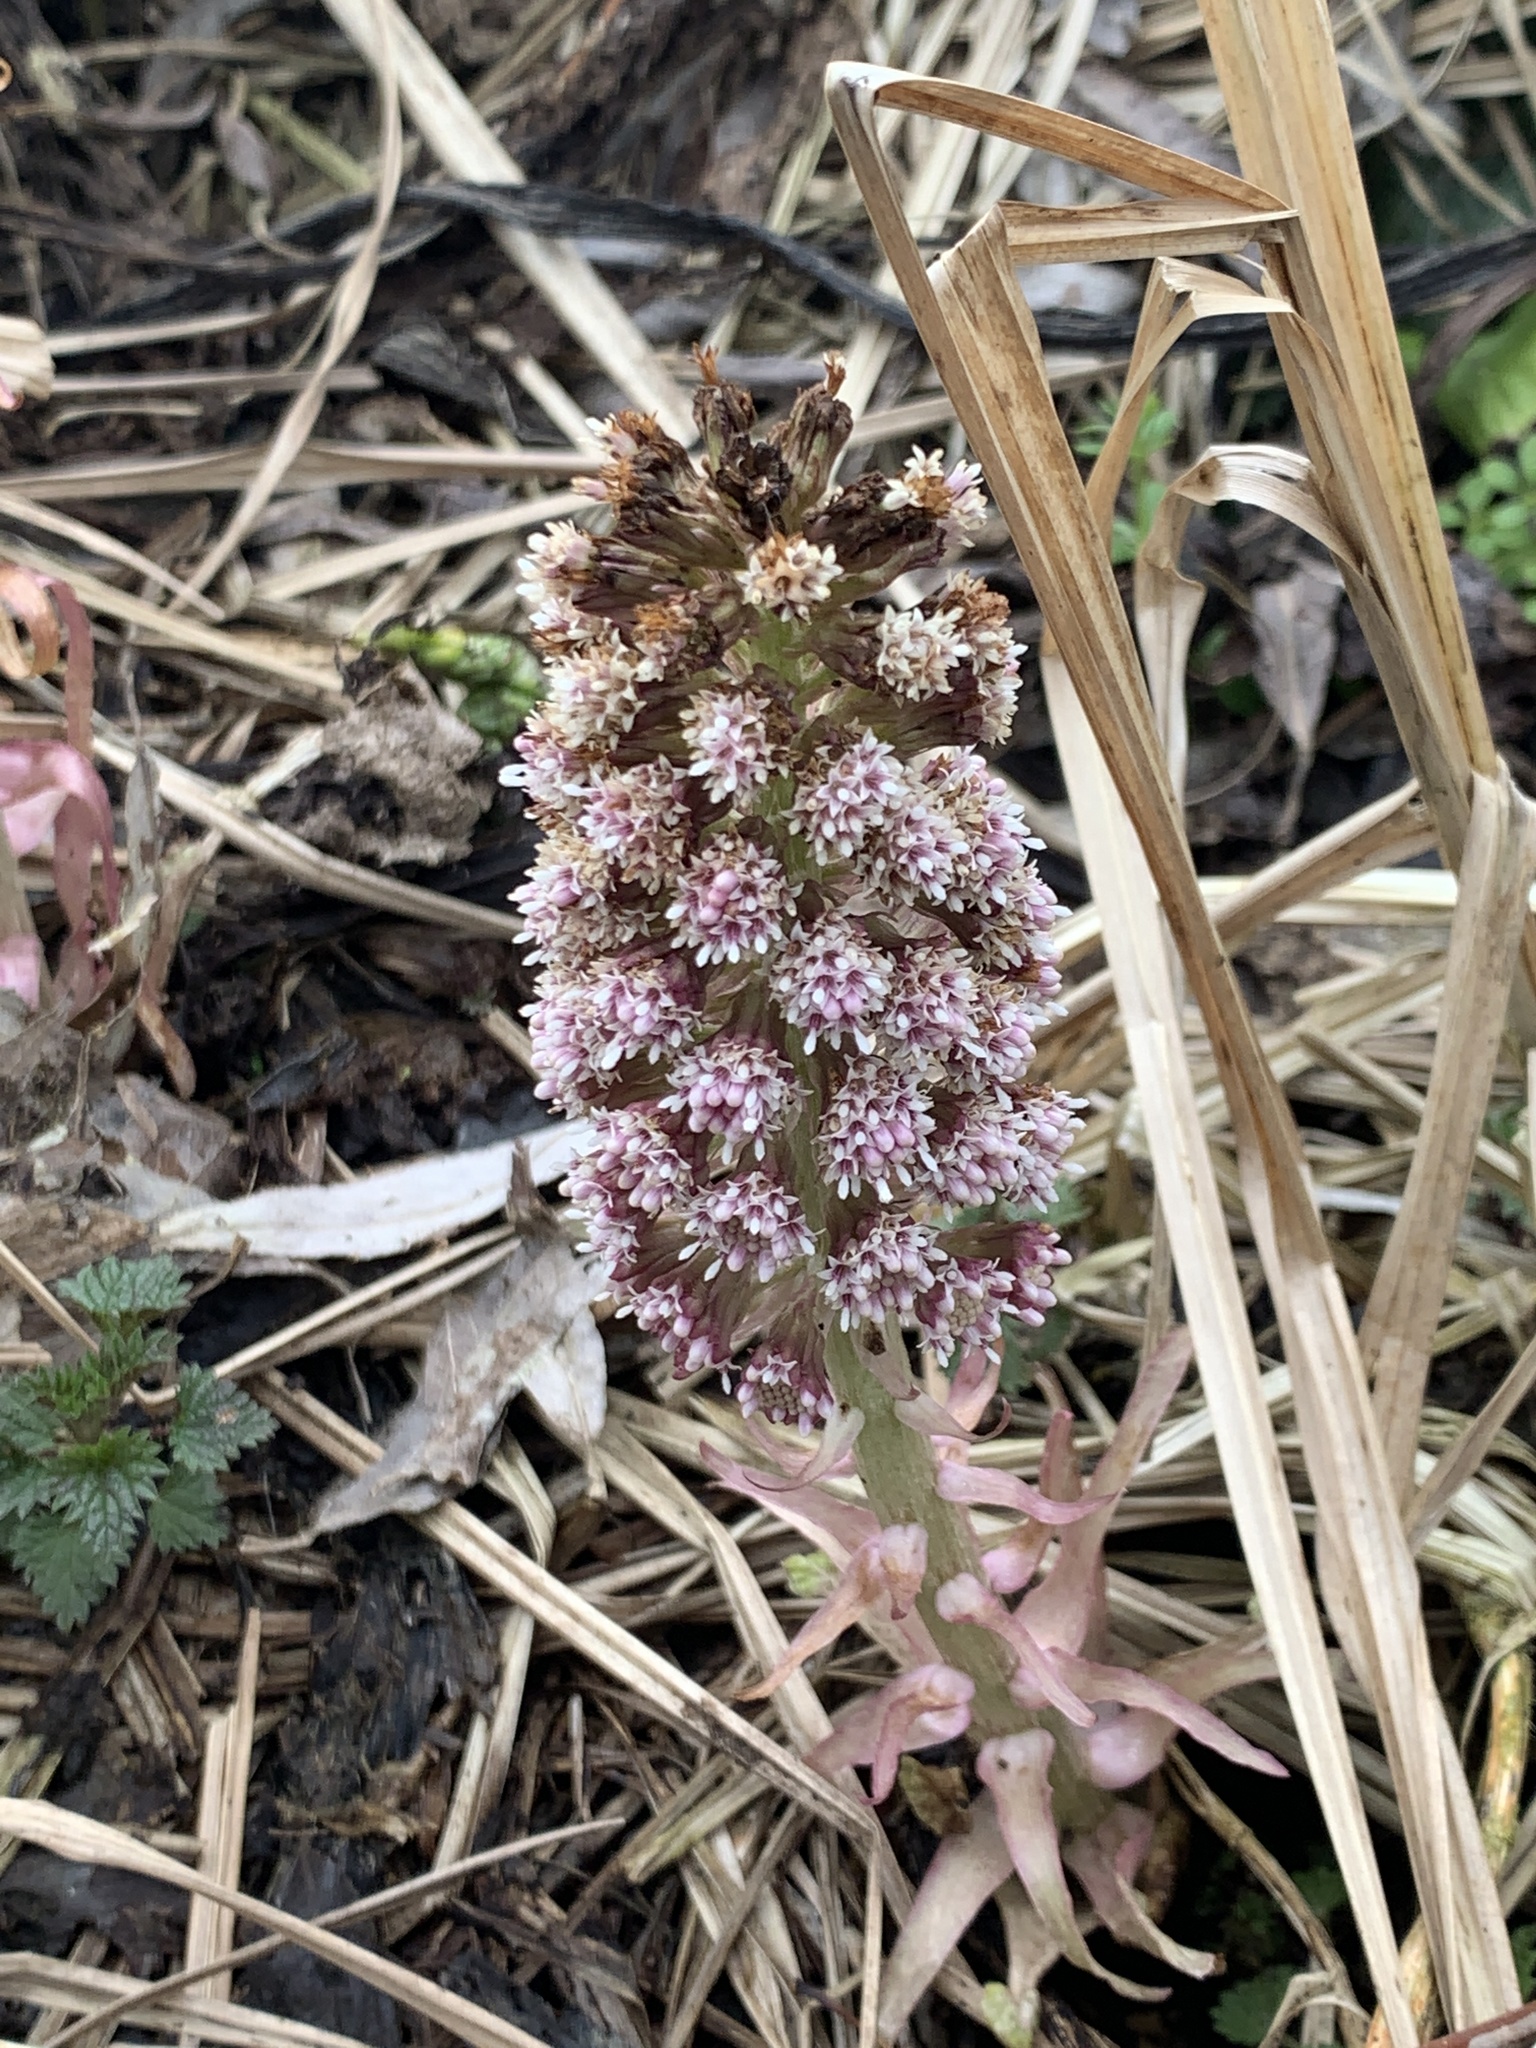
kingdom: Plantae
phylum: Tracheophyta
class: Magnoliopsida
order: Asterales
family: Asteraceae
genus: Petasites
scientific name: Petasites hybridus
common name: Butterbur
